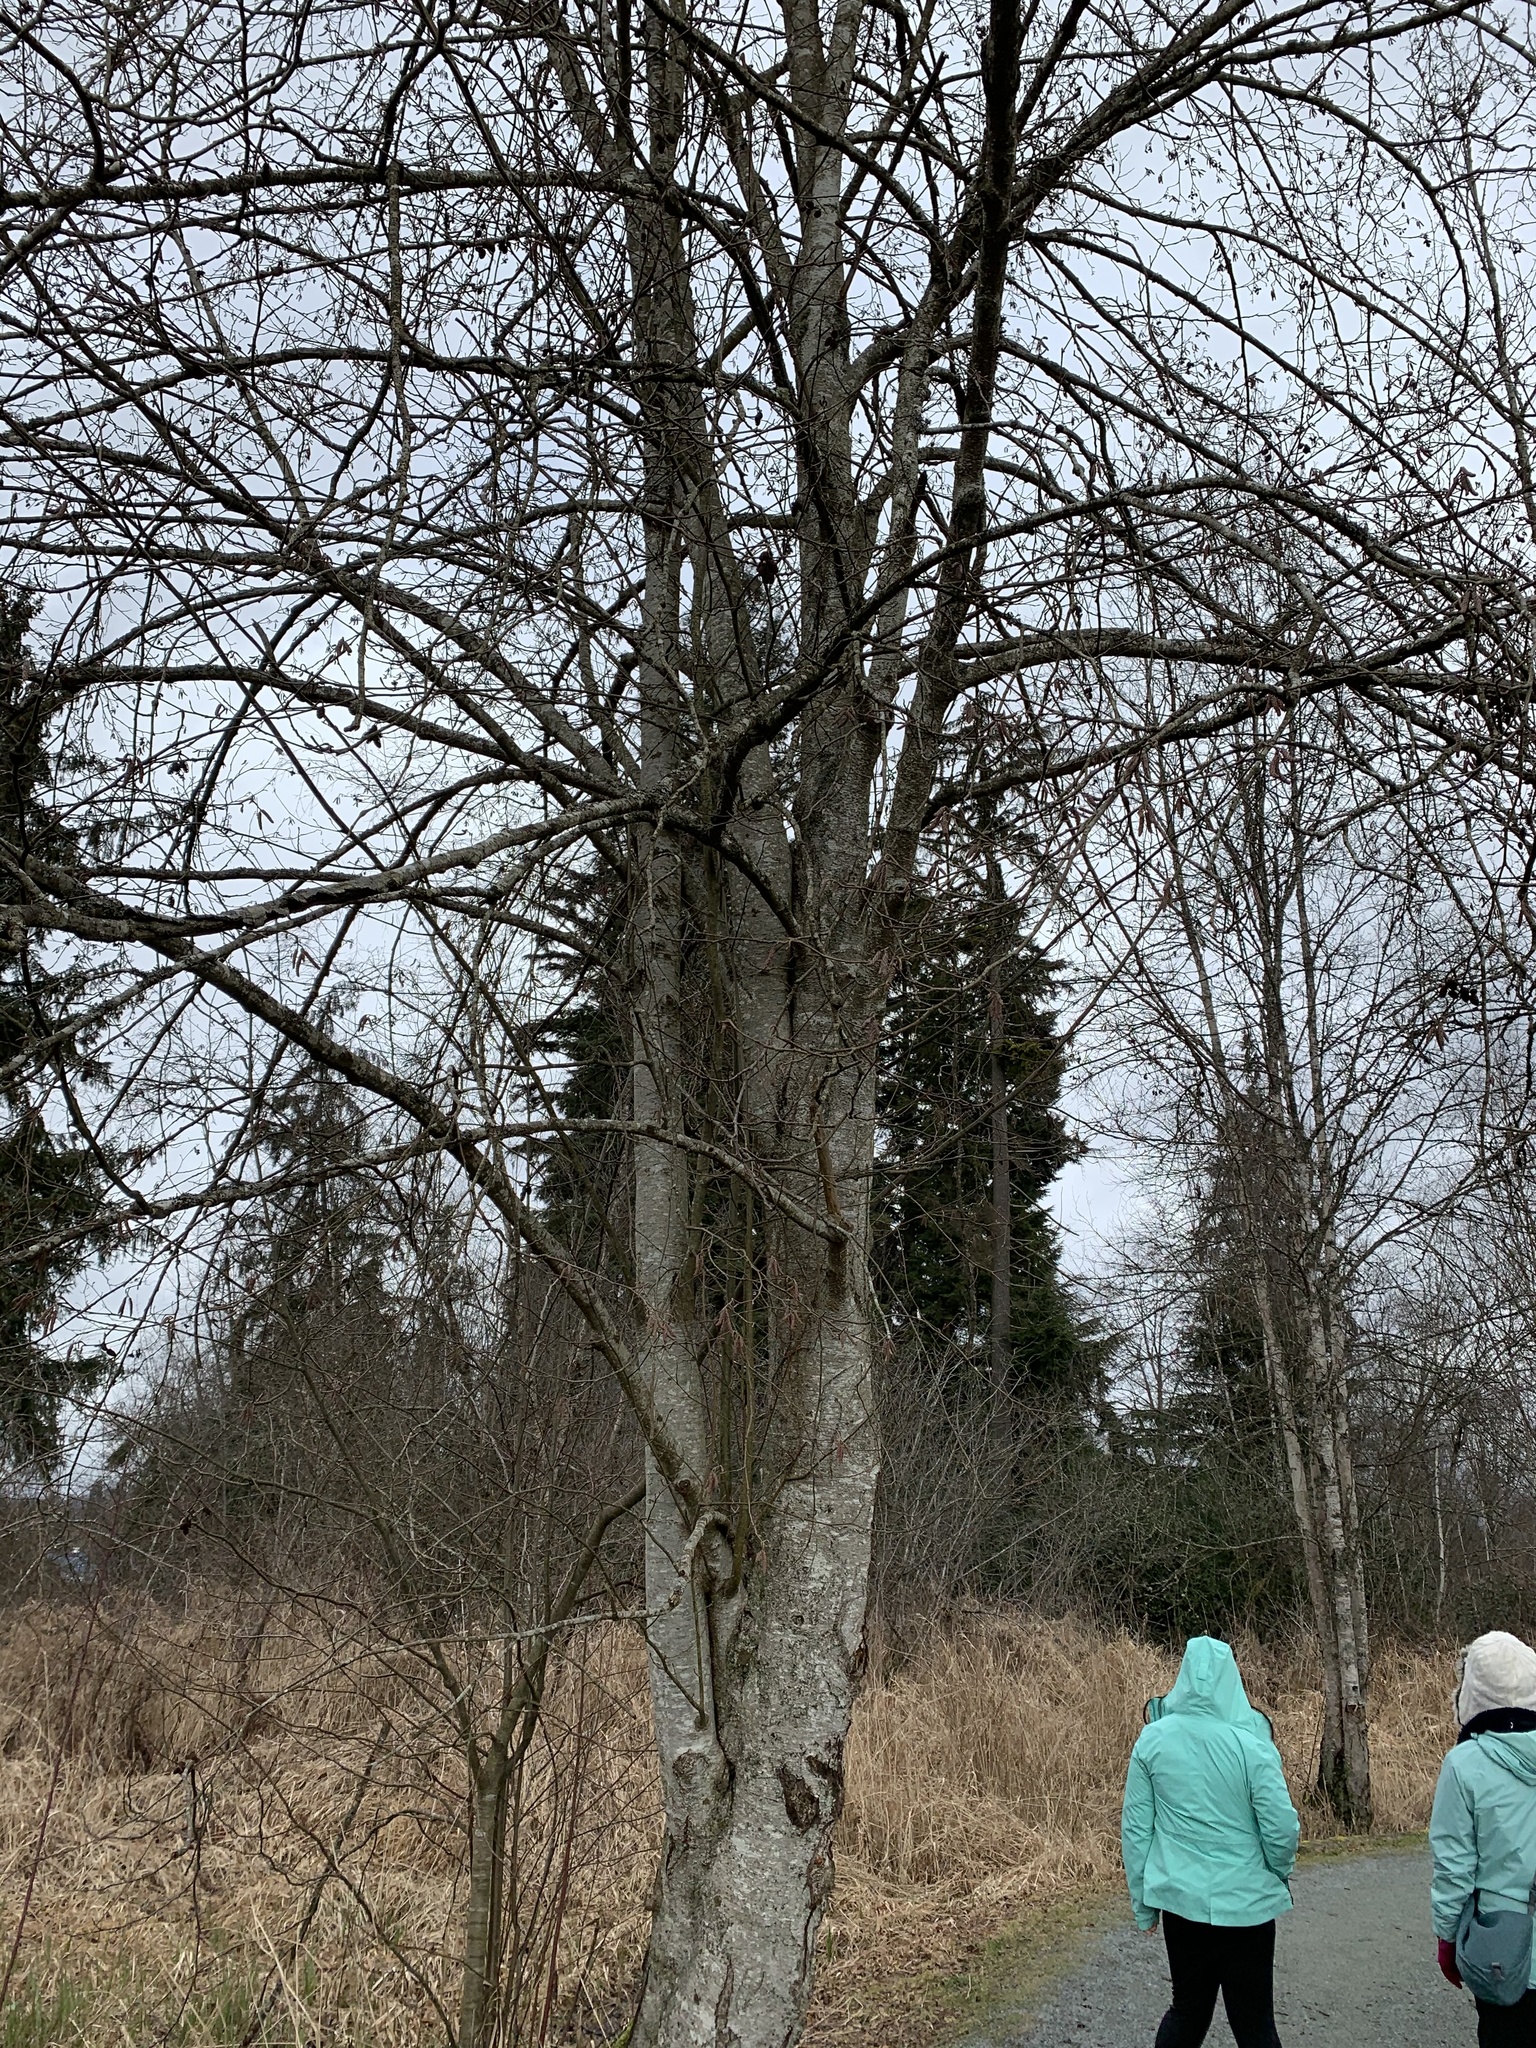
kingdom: Plantae
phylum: Tracheophyta
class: Magnoliopsida
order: Fagales
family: Betulaceae
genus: Alnus
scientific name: Alnus rubra
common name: Red alder
